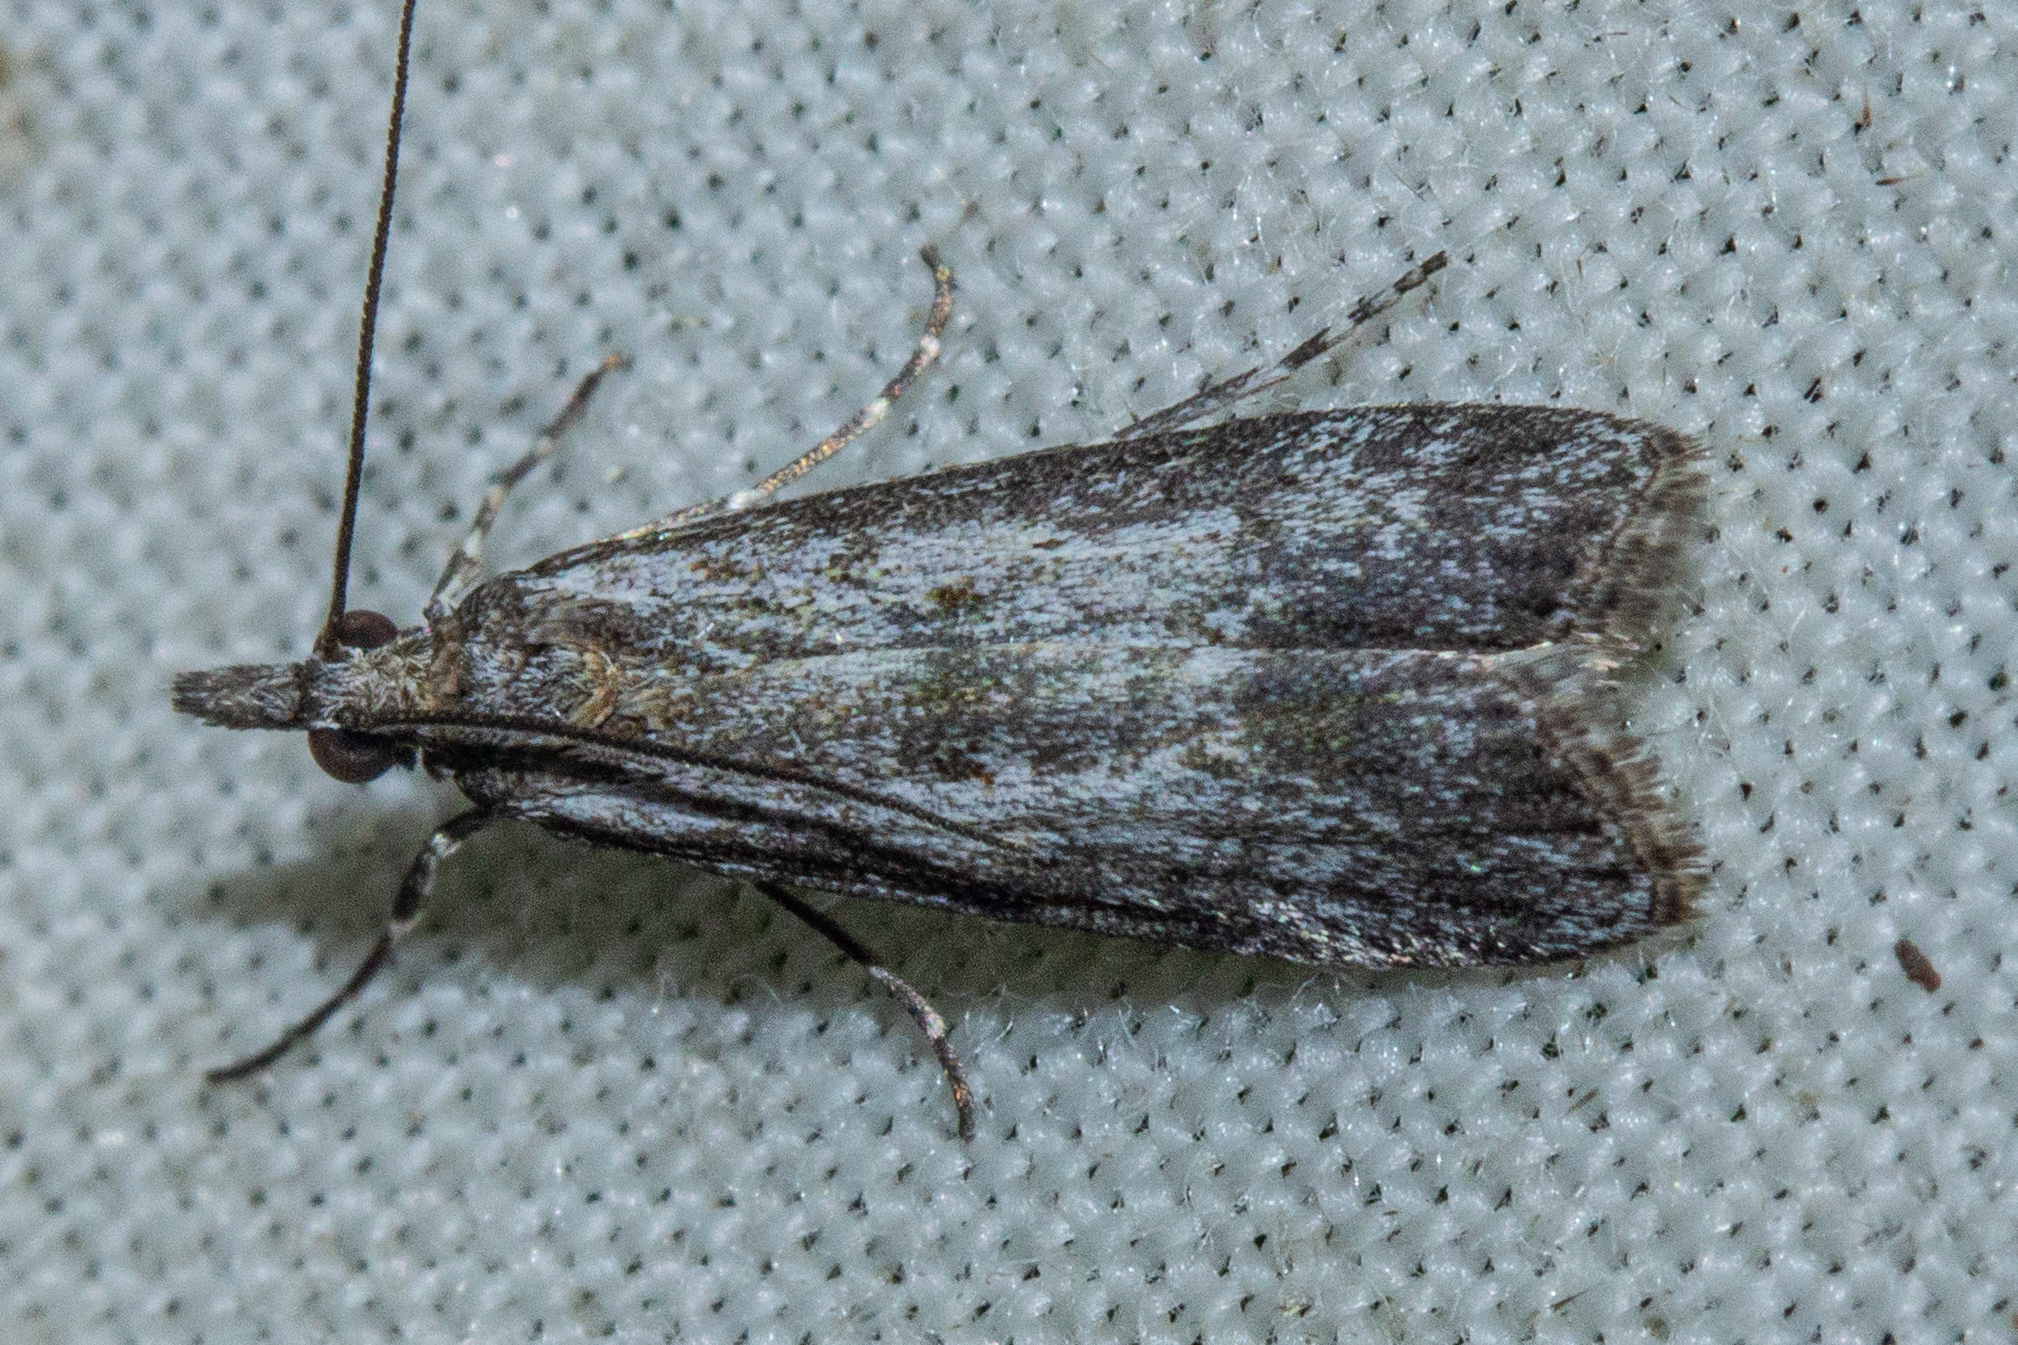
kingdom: Animalia
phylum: Arthropoda
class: Insecta
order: Lepidoptera
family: Crambidae
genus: Eudonia
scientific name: Eudonia leptalea
